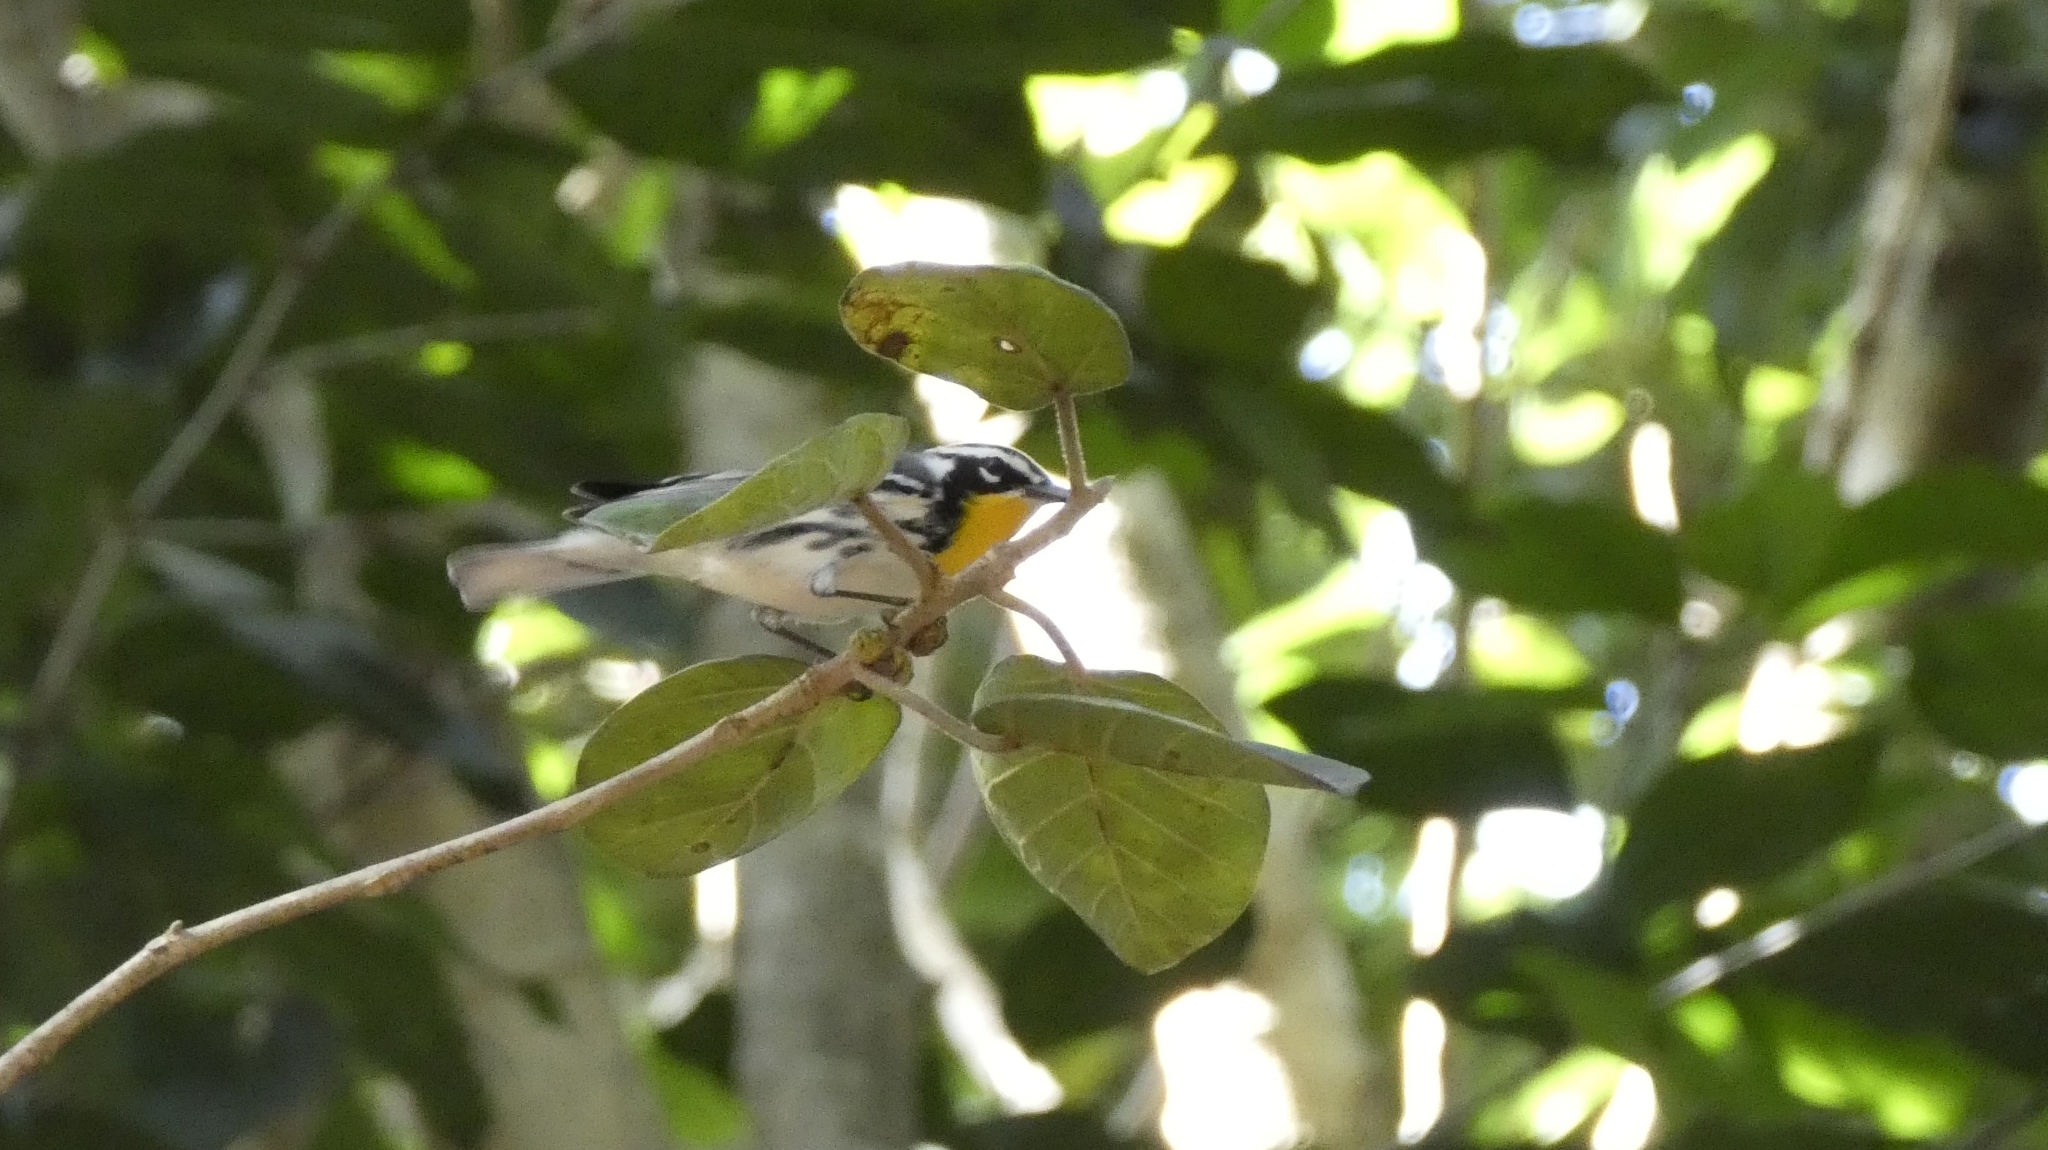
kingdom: Animalia
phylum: Chordata
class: Aves
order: Passeriformes
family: Parulidae
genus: Setophaga
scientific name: Setophaga dominica
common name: Yellow-throated warbler
